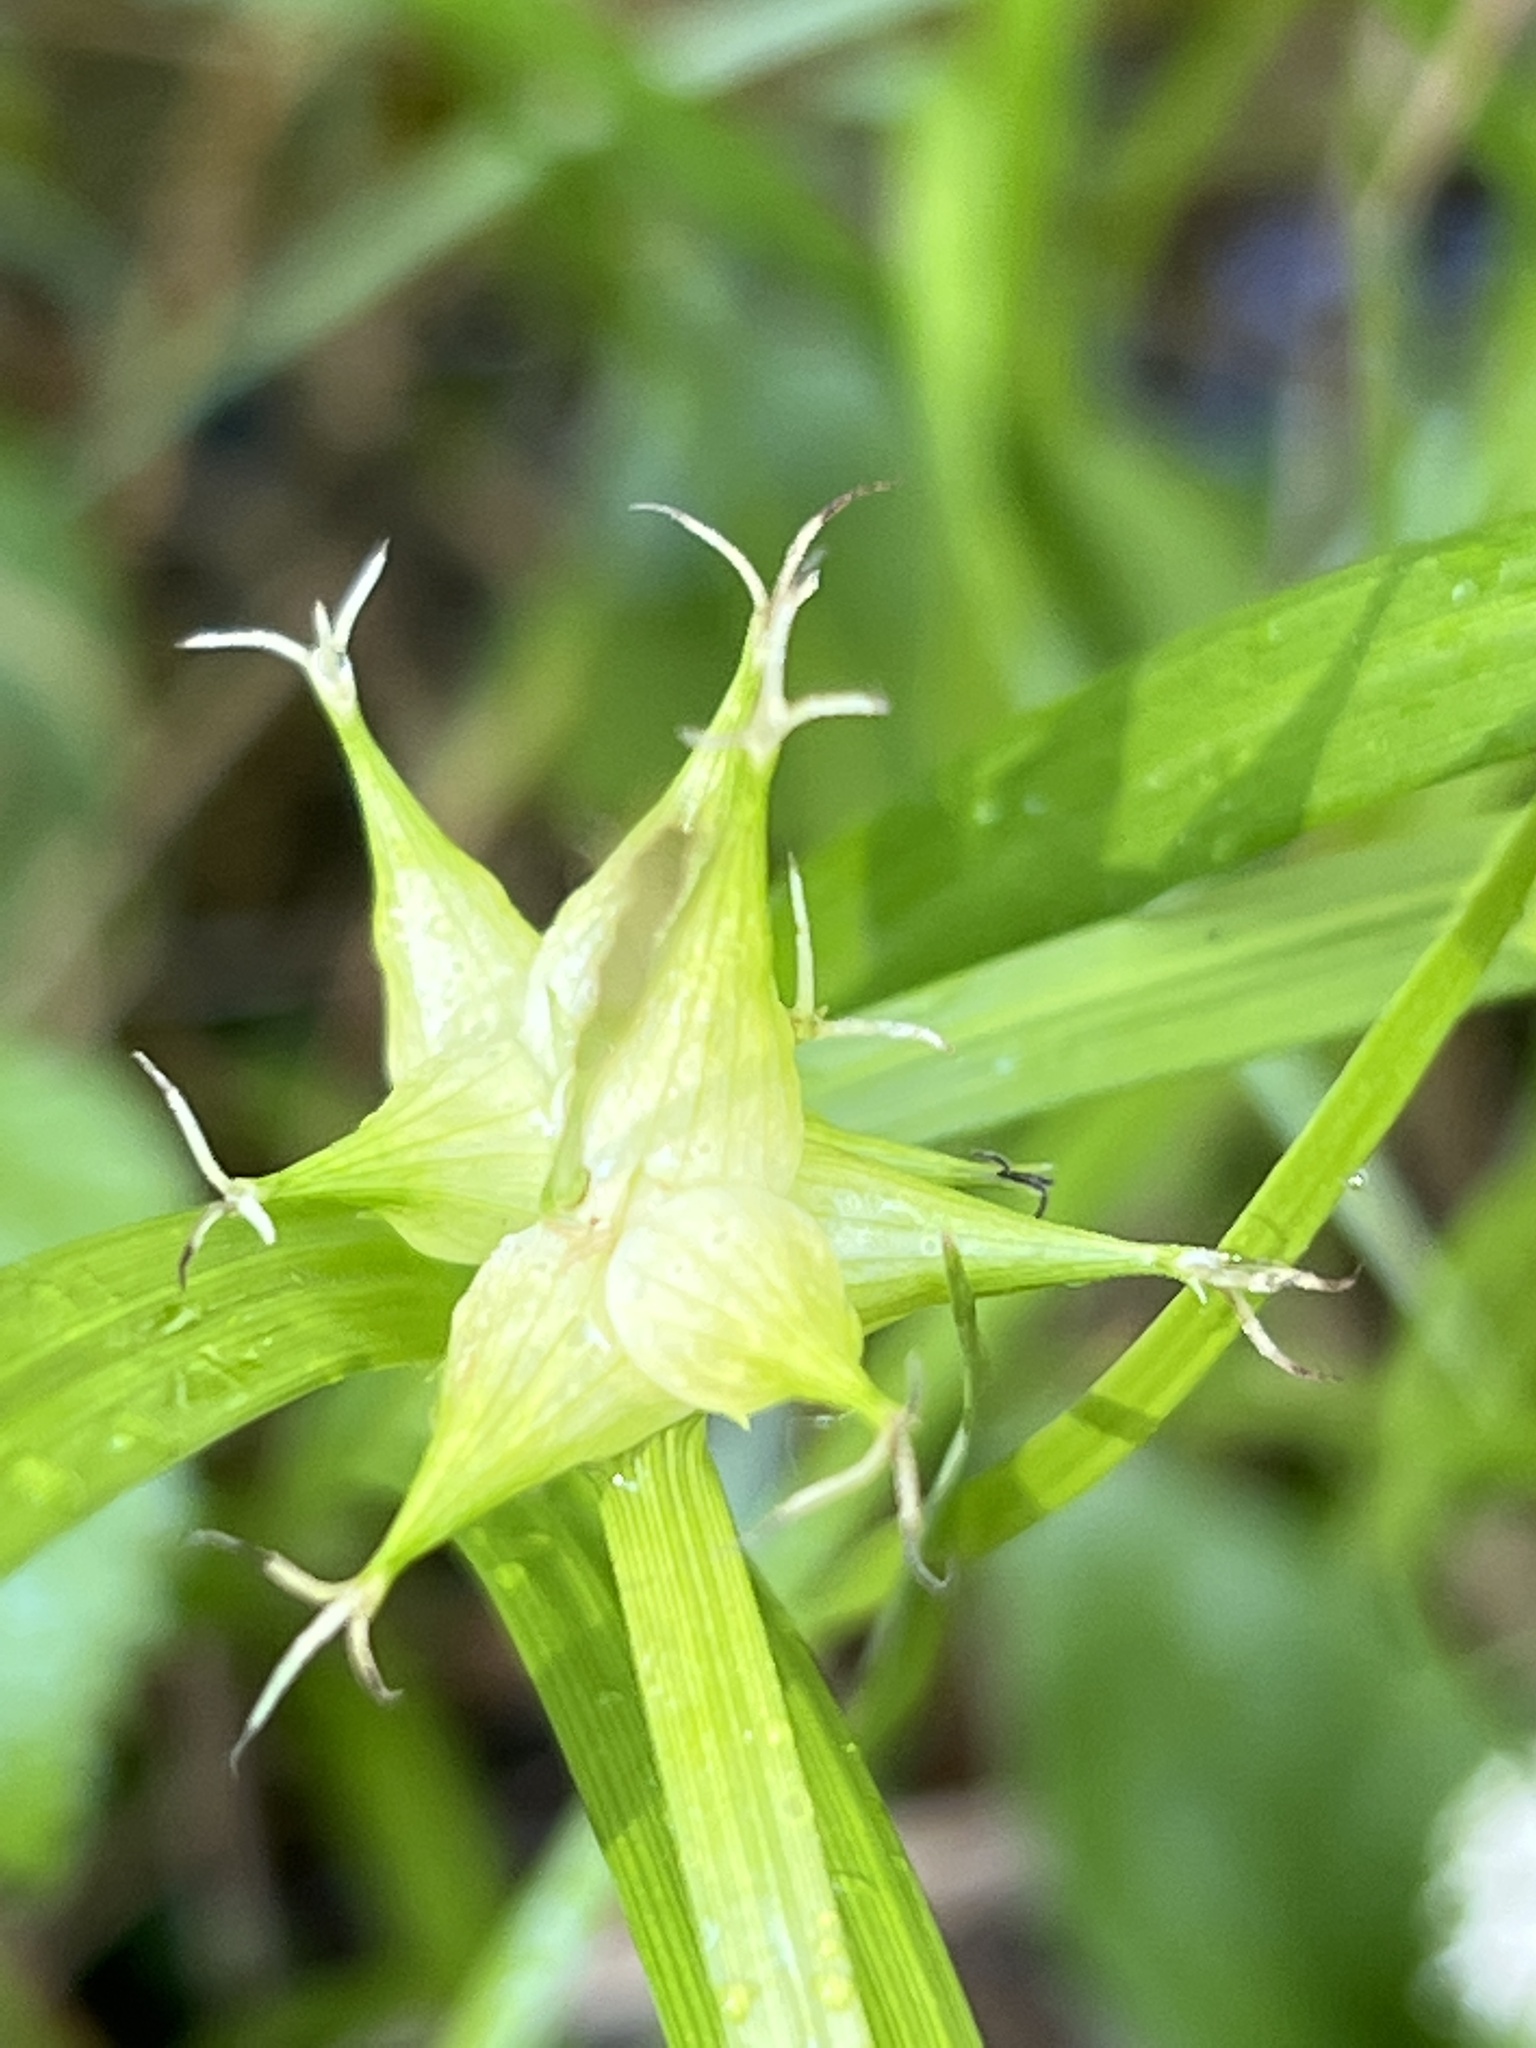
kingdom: Plantae
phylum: Tracheophyta
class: Liliopsida
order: Poales
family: Cyperaceae
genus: Carex
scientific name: Carex intumescens
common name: Greater bladder sedge
